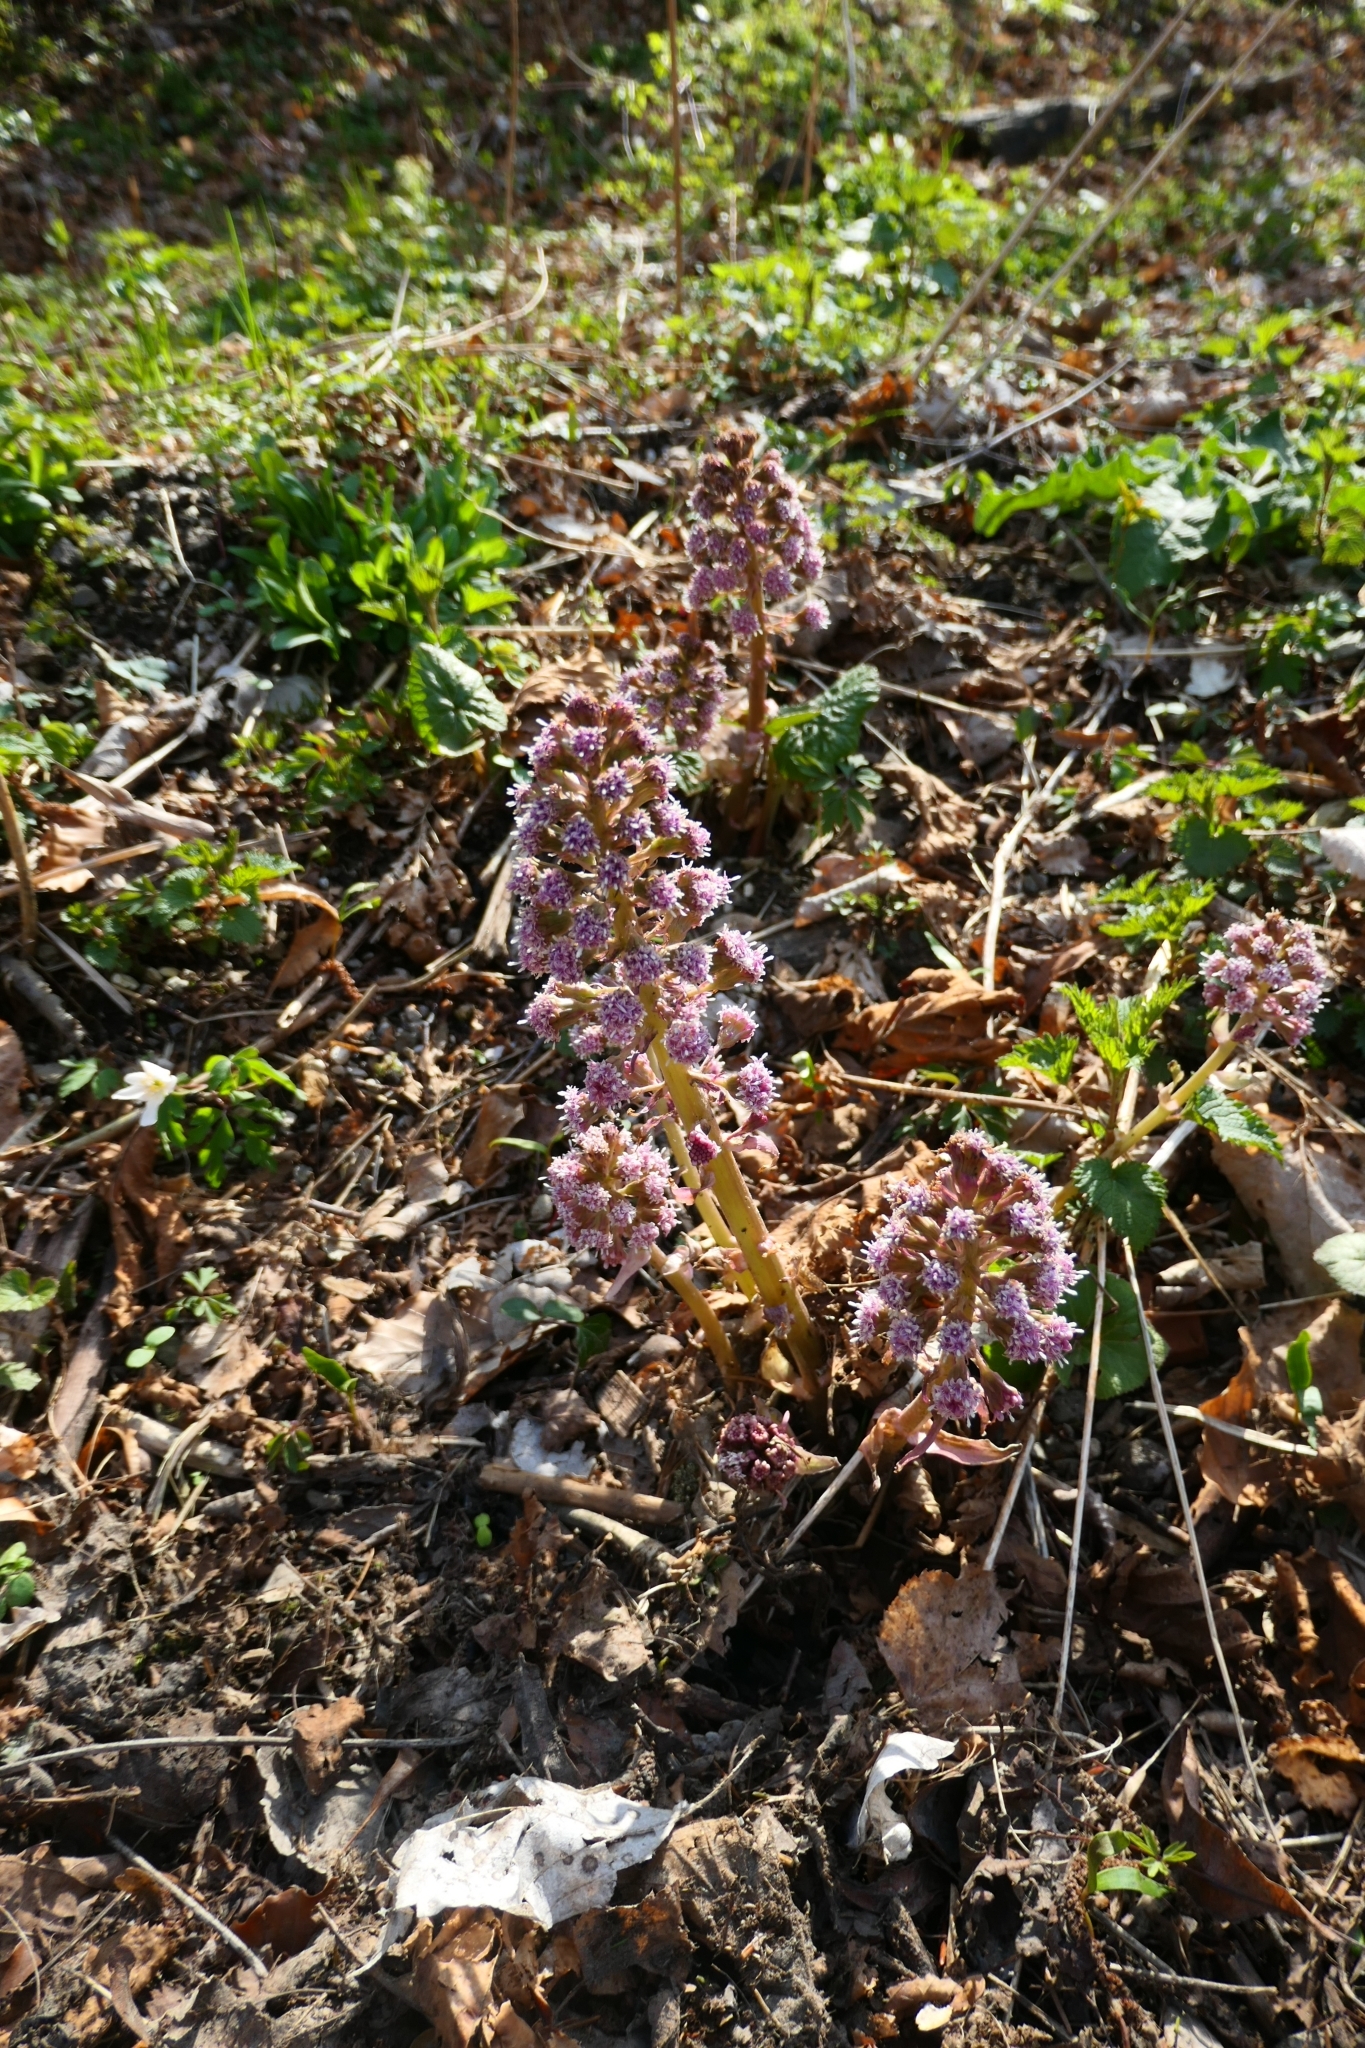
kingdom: Plantae
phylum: Tracheophyta
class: Magnoliopsida
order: Asterales
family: Asteraceae
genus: Petasites
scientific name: Petasites hybridus
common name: Butterbur
